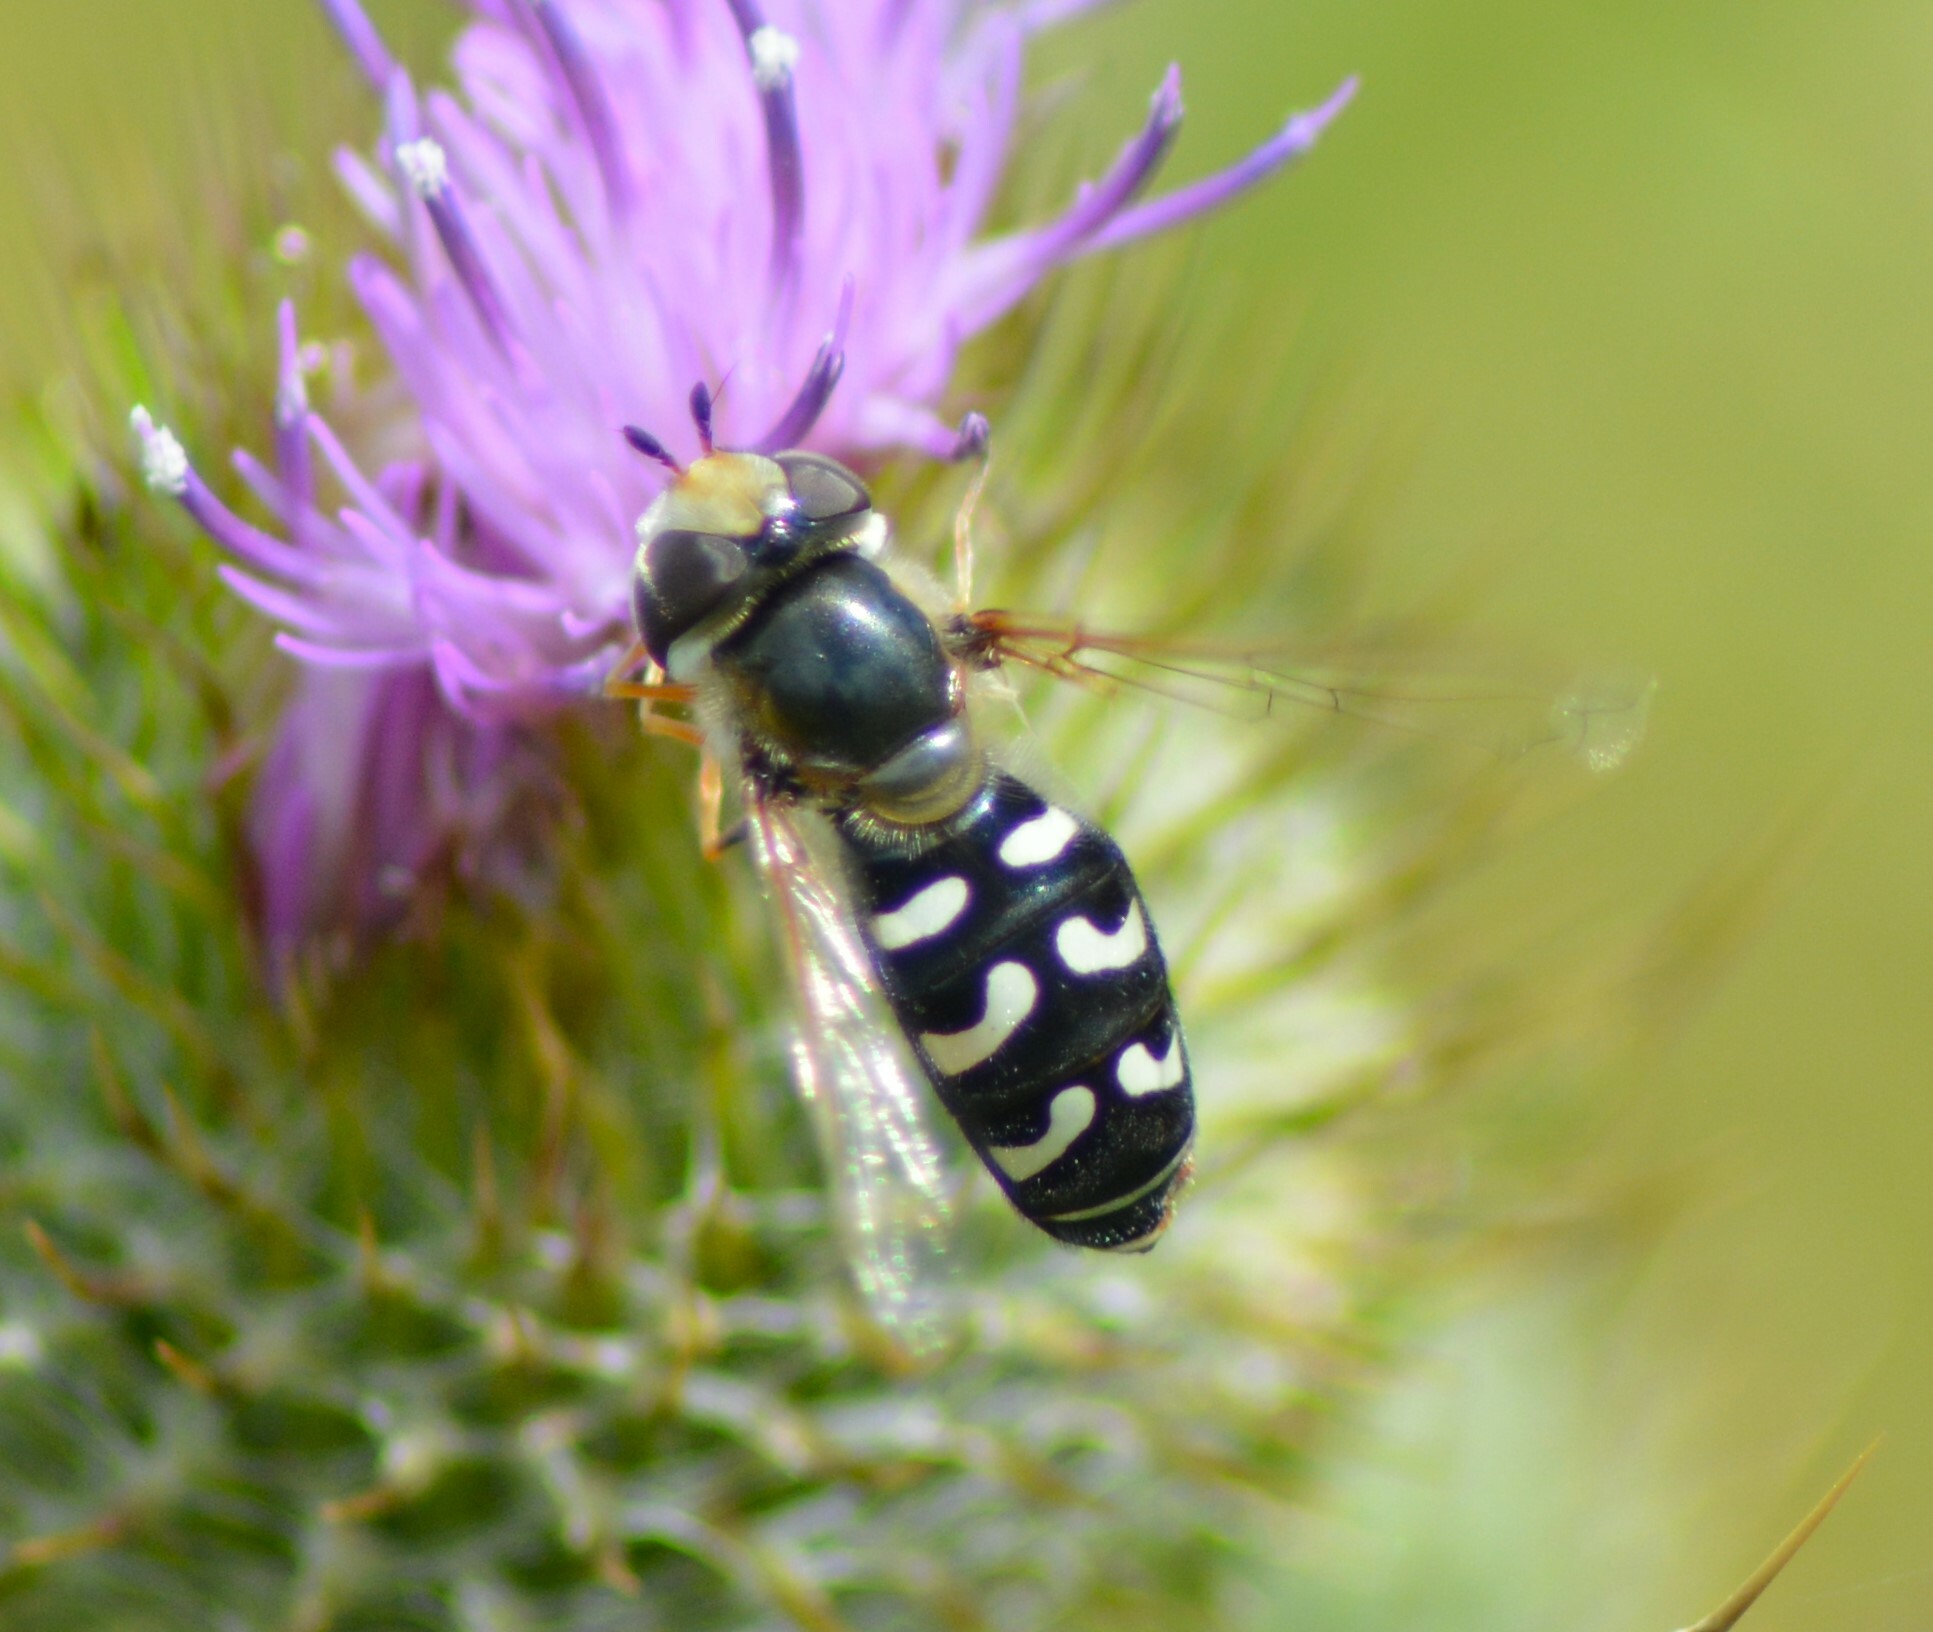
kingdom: Animalia
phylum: Arthropoda
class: Insecta
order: Diptera
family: Syrphidae
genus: Scaeva
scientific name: Scaeva pyrastri
